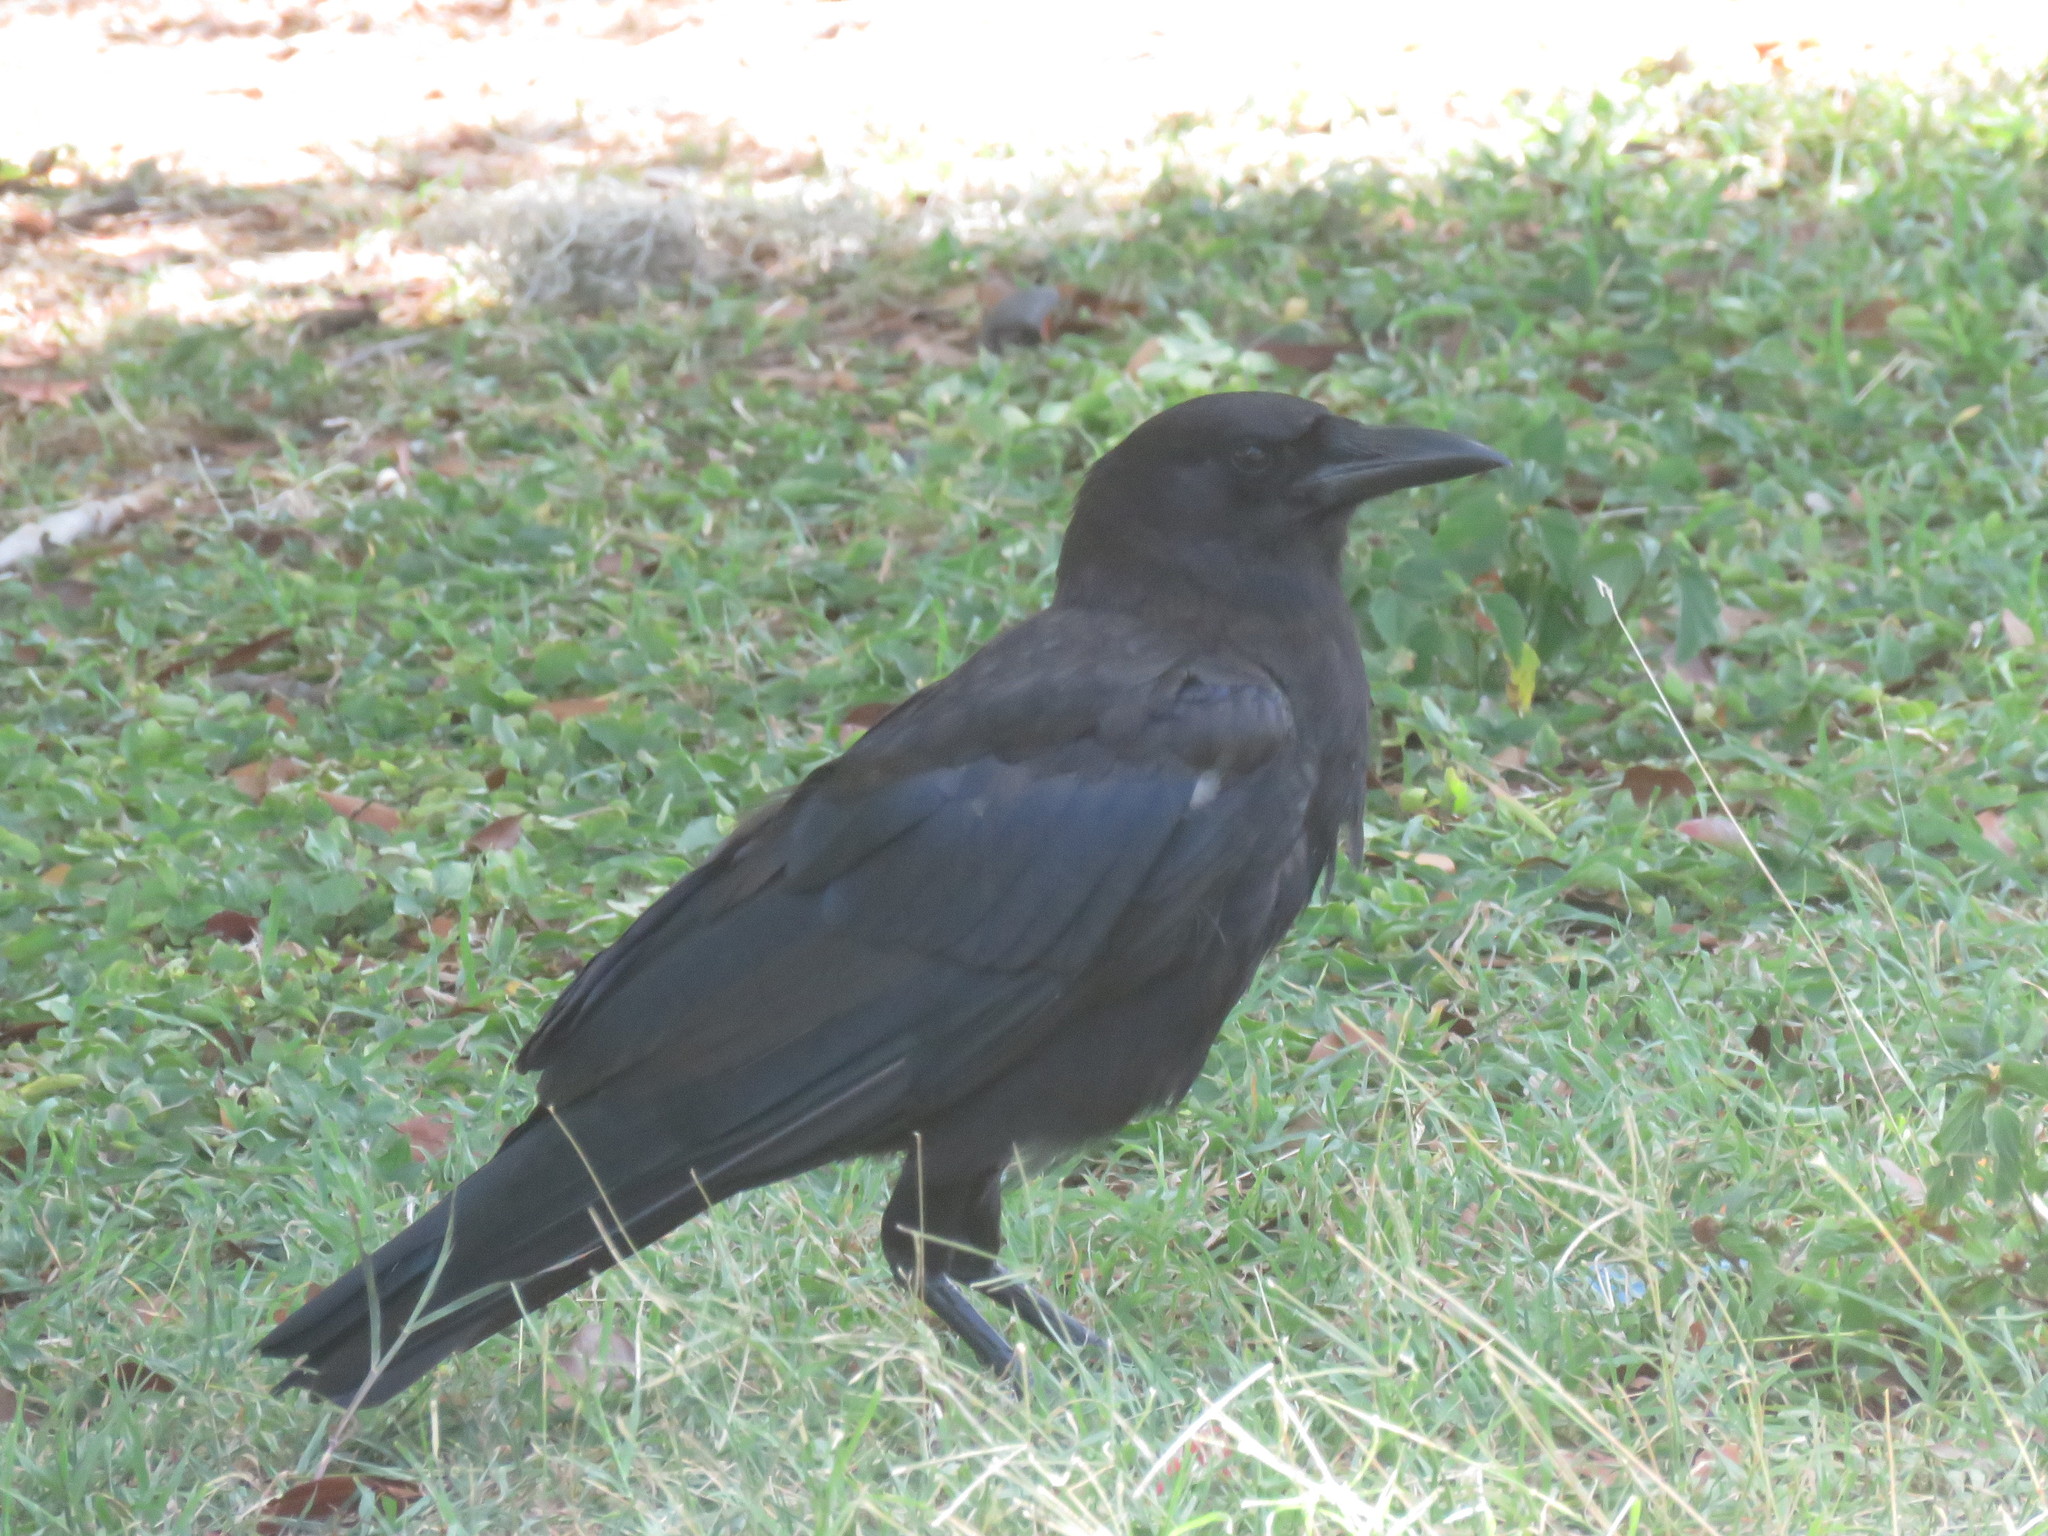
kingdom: Animalia
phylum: Chordata
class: Aves
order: Passeriformes
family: Corvidae
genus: Corvus
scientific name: Corvus brachyrhynchos
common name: American crow
